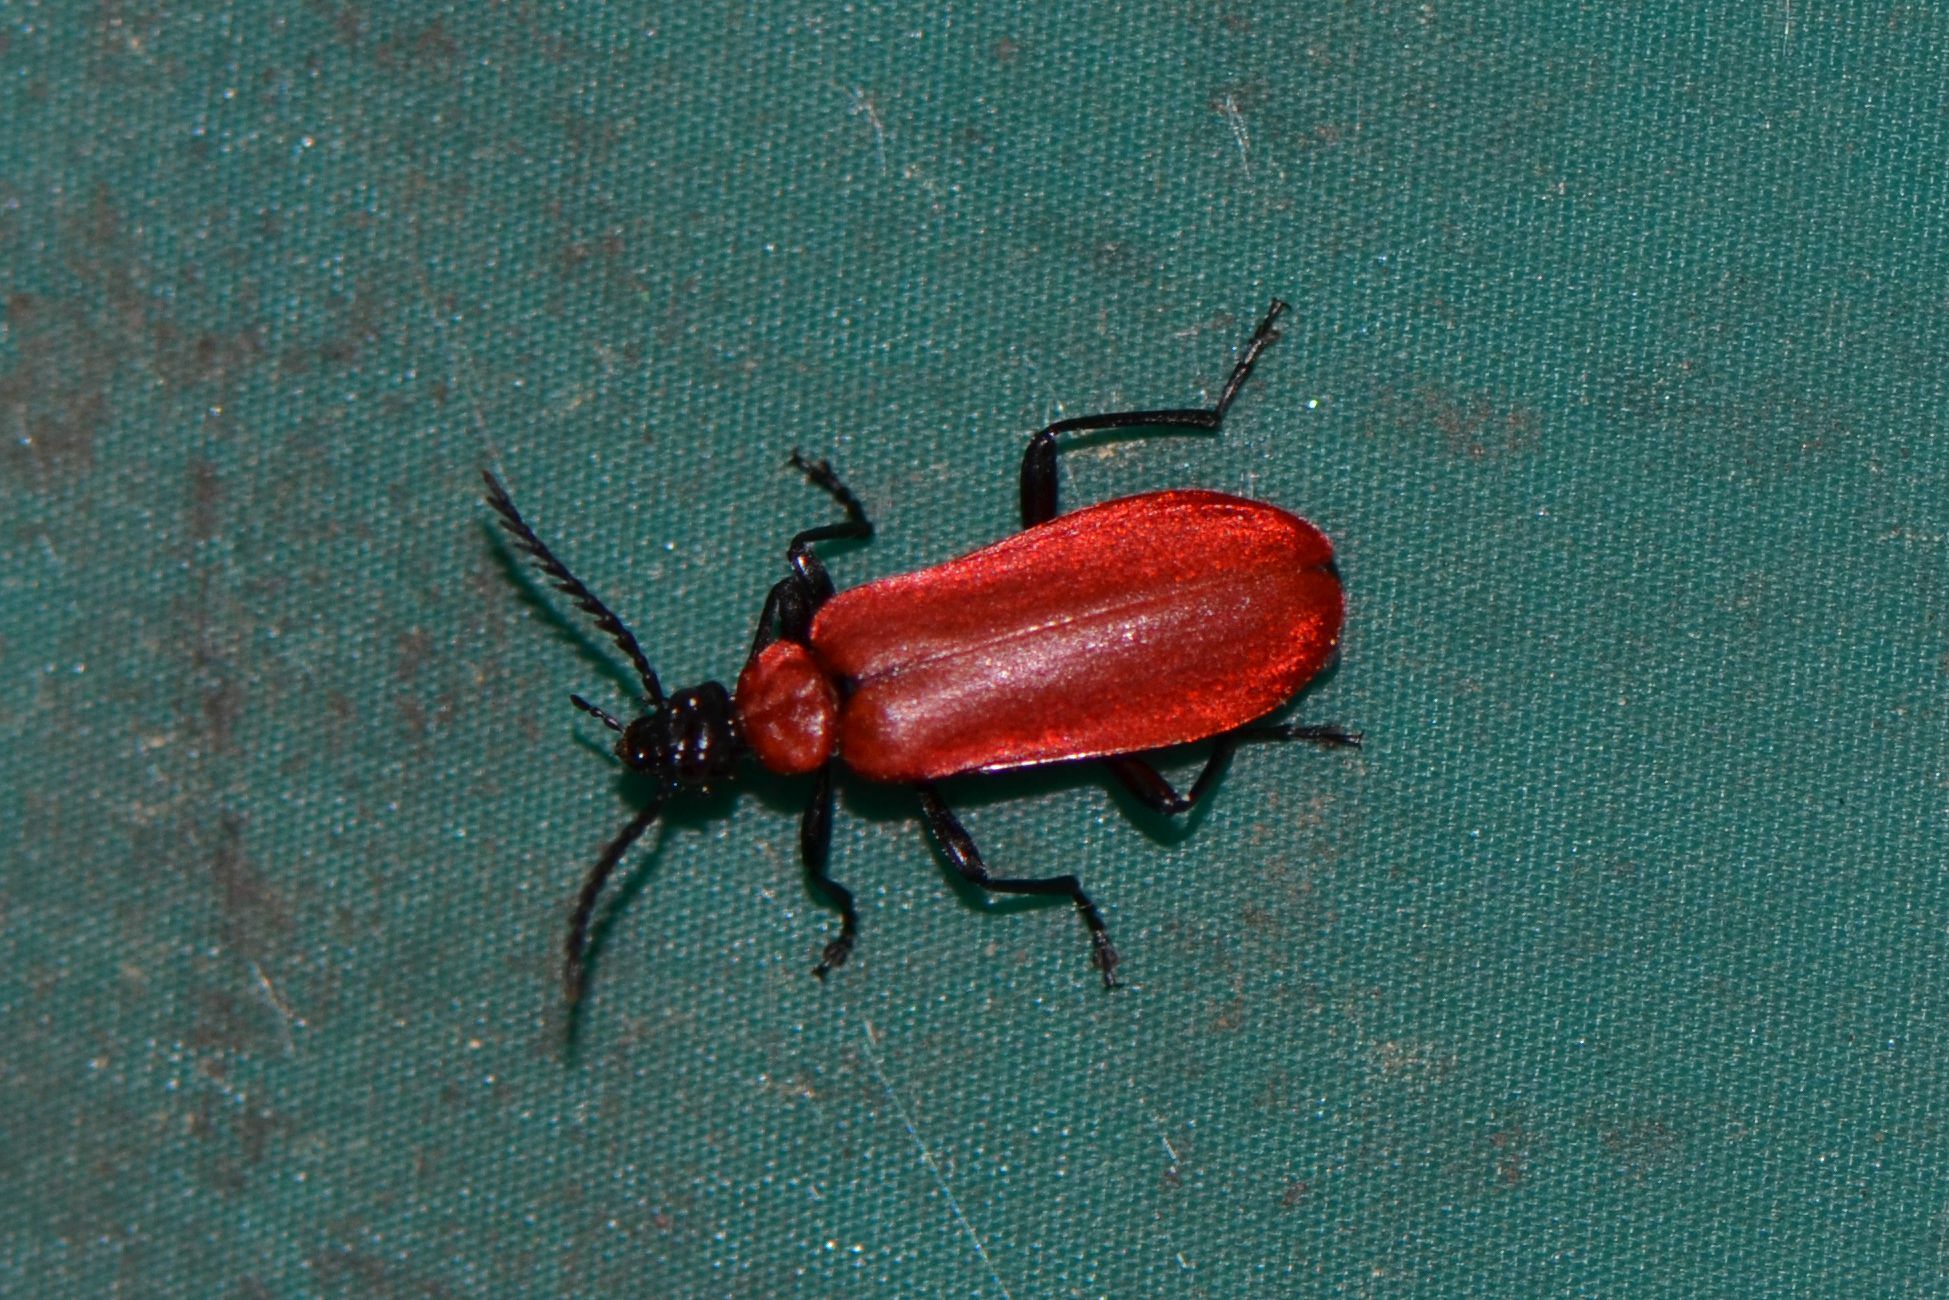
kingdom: Animalia
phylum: Arthropoda
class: Insecta
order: Coleoptera
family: Pyrochroidae
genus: Pyrochroa
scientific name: Pyrochroa coccinea
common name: Black-headed cardinal beetle
